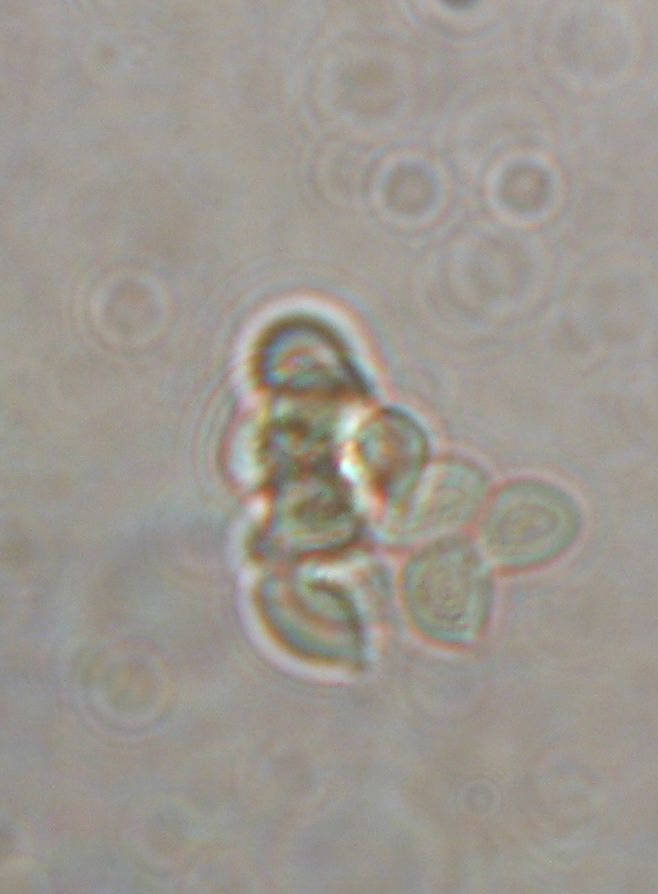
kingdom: Fungi
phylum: Basidiomycota
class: Agaricomycetes
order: Agaricales
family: Marasmiaceae
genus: Marasmius
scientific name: Marasmius oreades
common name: Fairy ring champignon
